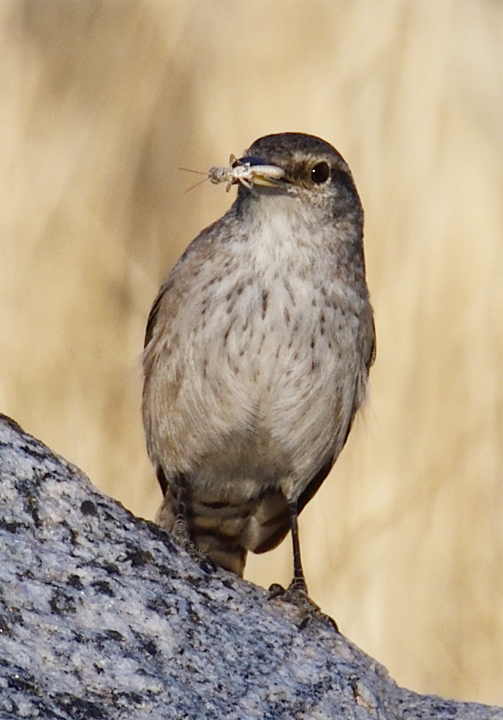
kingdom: Animalia
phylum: Chordata
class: Aves
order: Passeriformes
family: Troglodytidae
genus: Salpinctes
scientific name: Salpinctes obsoletus
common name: Rock wren
